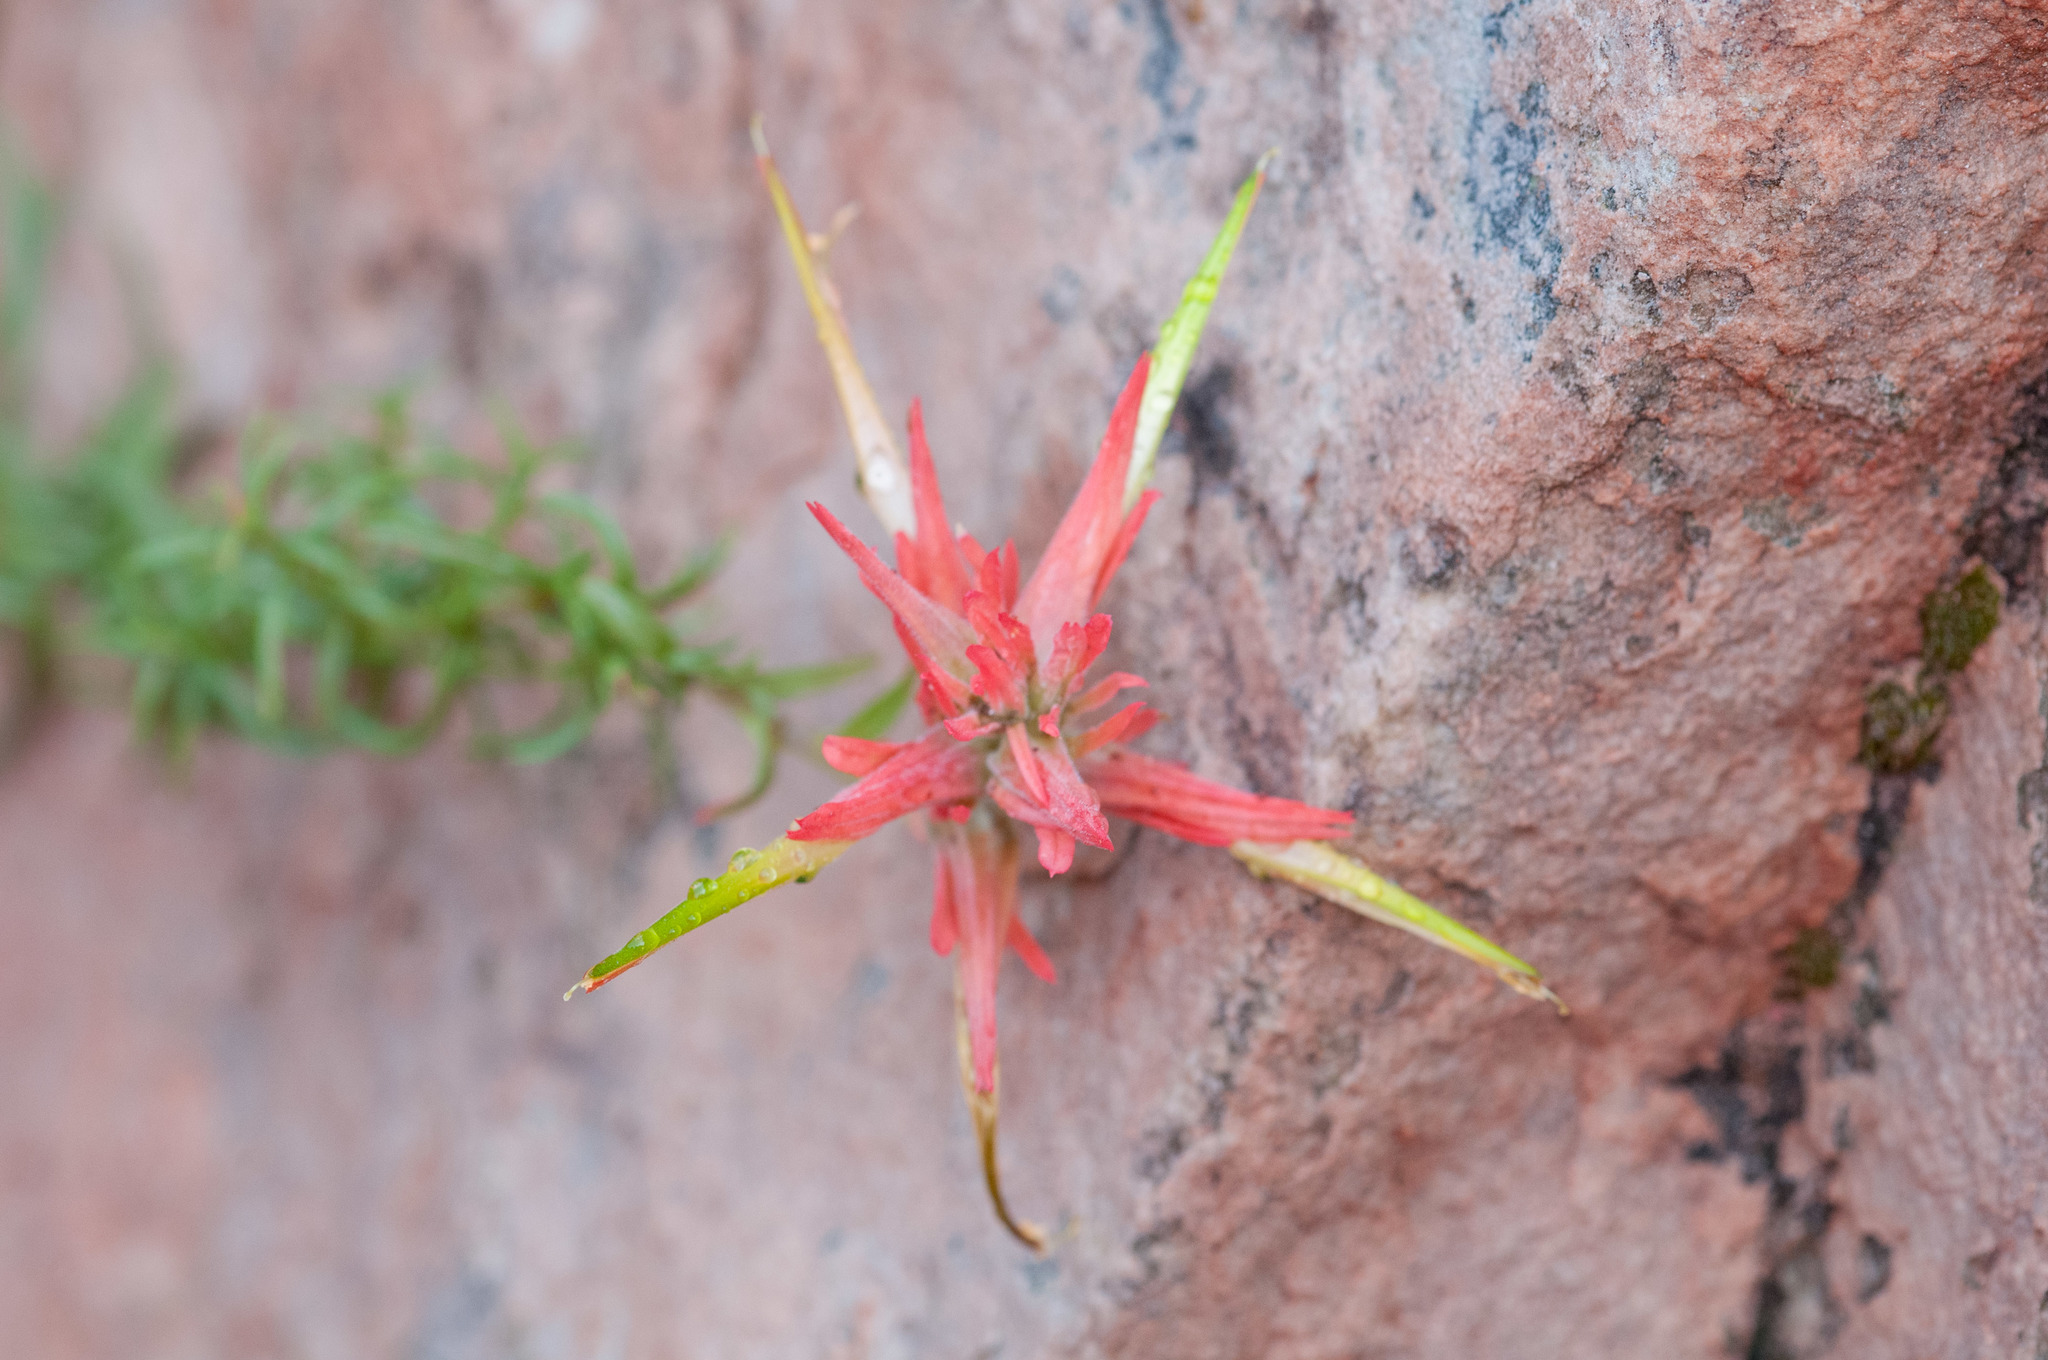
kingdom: Plantae
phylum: Tracheophyta
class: Magnoliopsida
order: Lamiales
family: Orobanchaceae
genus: Castilleja
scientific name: Castilleja linariifolia
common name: Wyoming paintbrush
